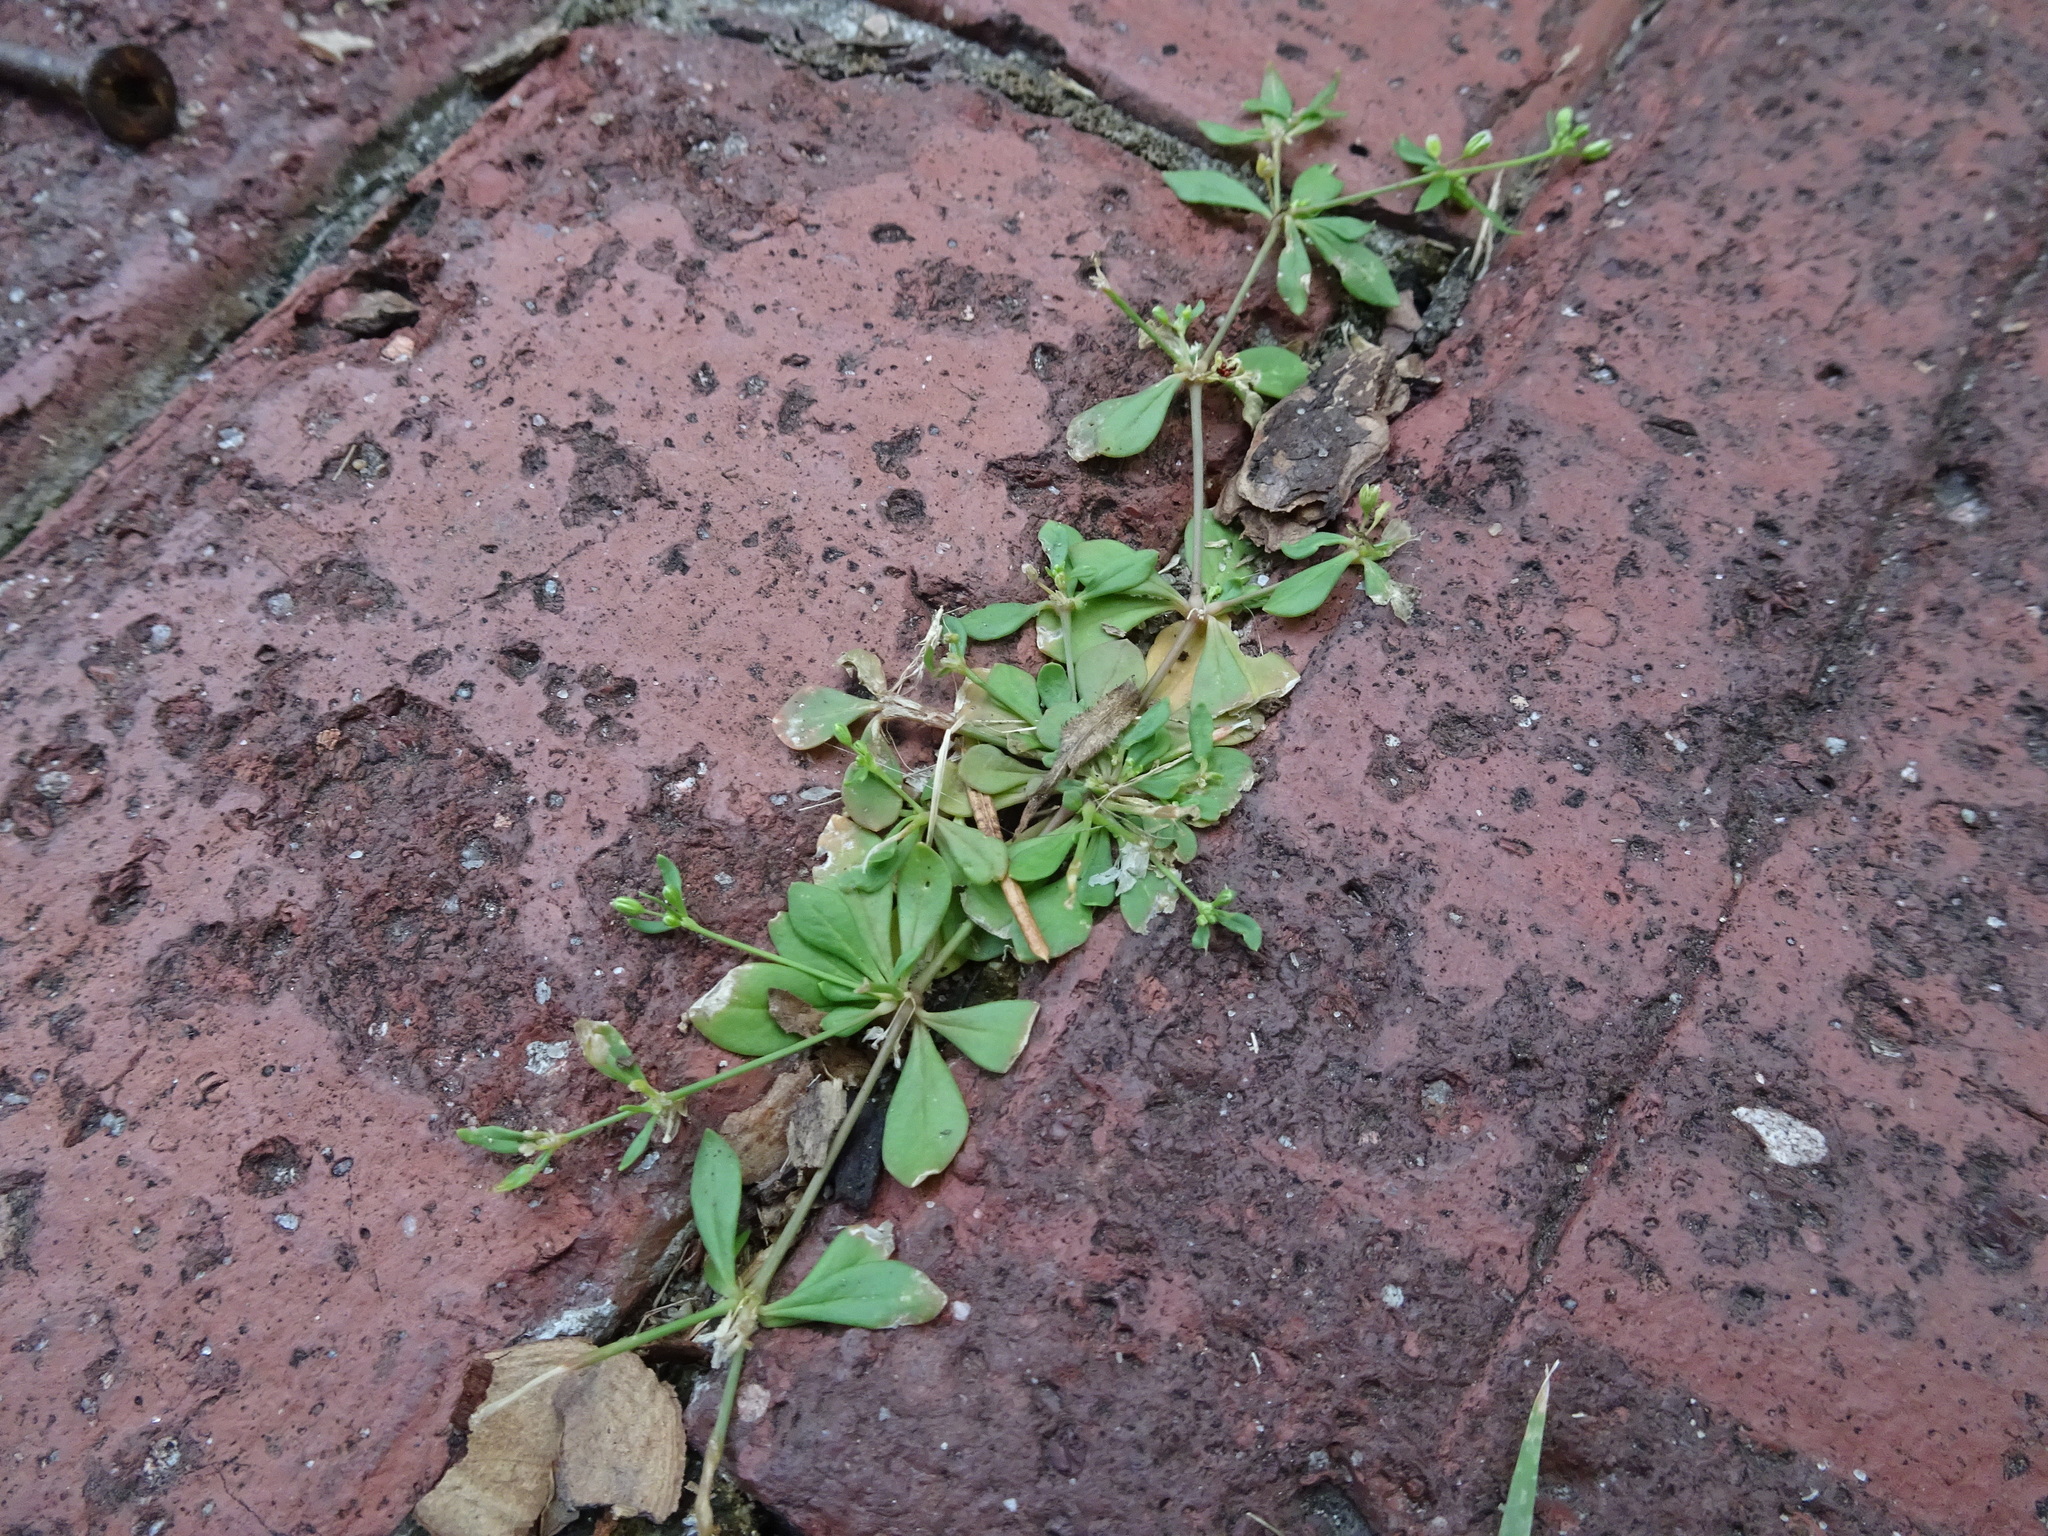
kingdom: Plantae
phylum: Tracheophyta
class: Magnoliopsida
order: Caryophyllales
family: Molluginaceae
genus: Mollugo
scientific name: Mollugo verticillata
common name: Green carpetweed
